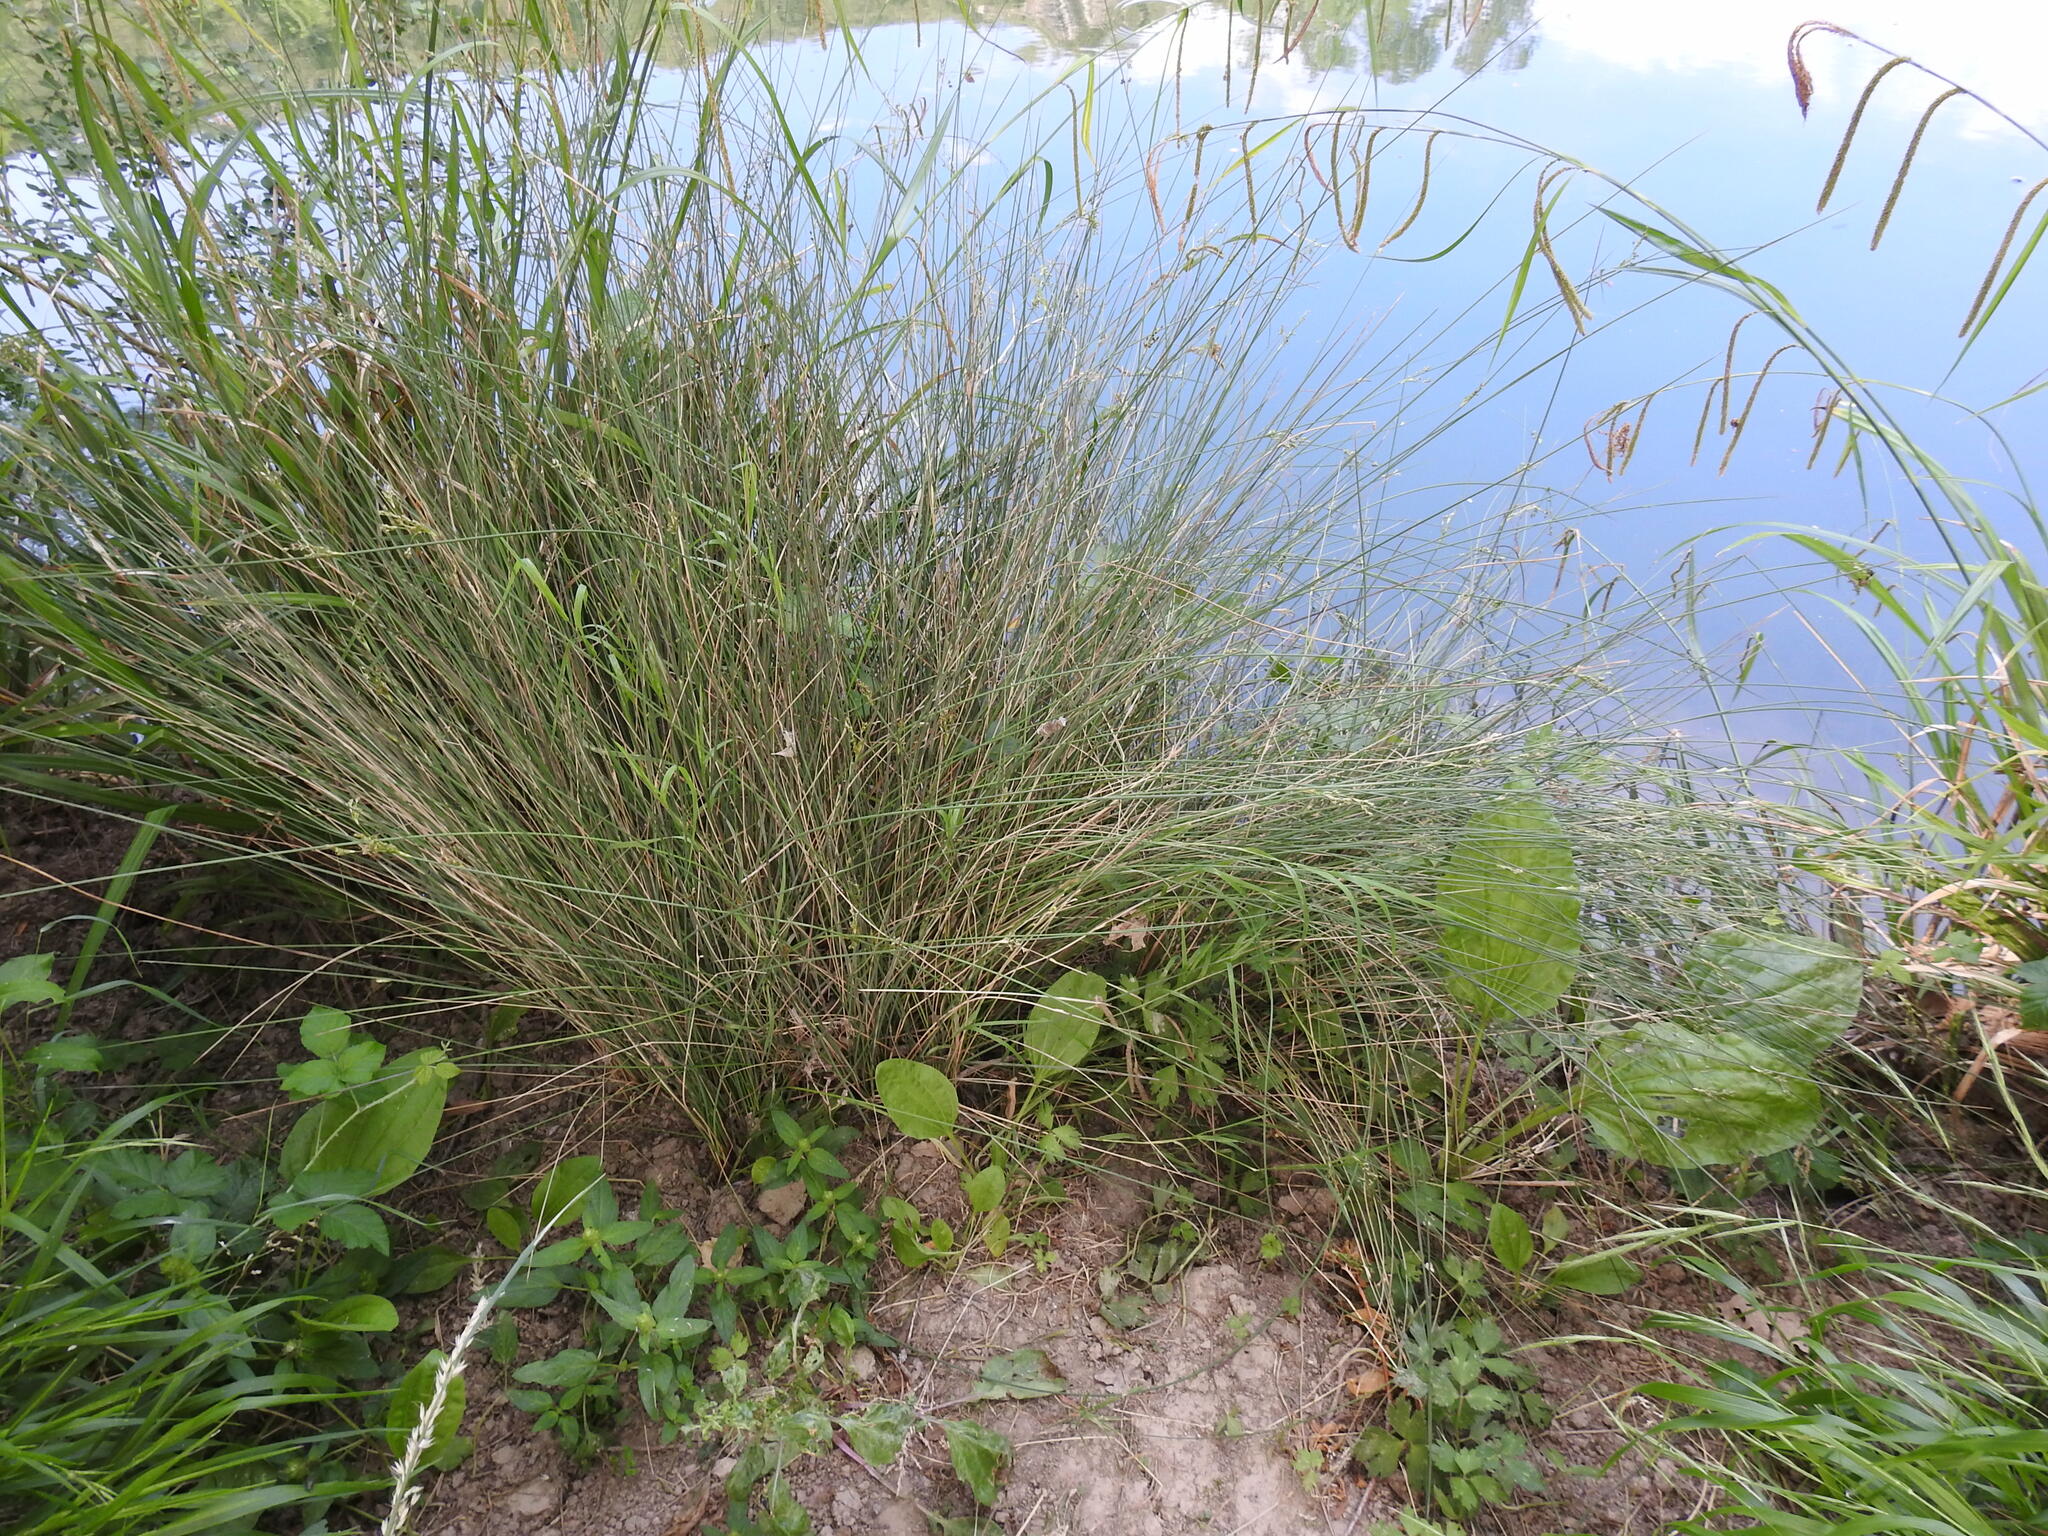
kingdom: Plantae
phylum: Tracheophyta
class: Liliopsida
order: Poales
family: Juncaceae
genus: Juncus
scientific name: Juncus inflexus
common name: Hard rush
